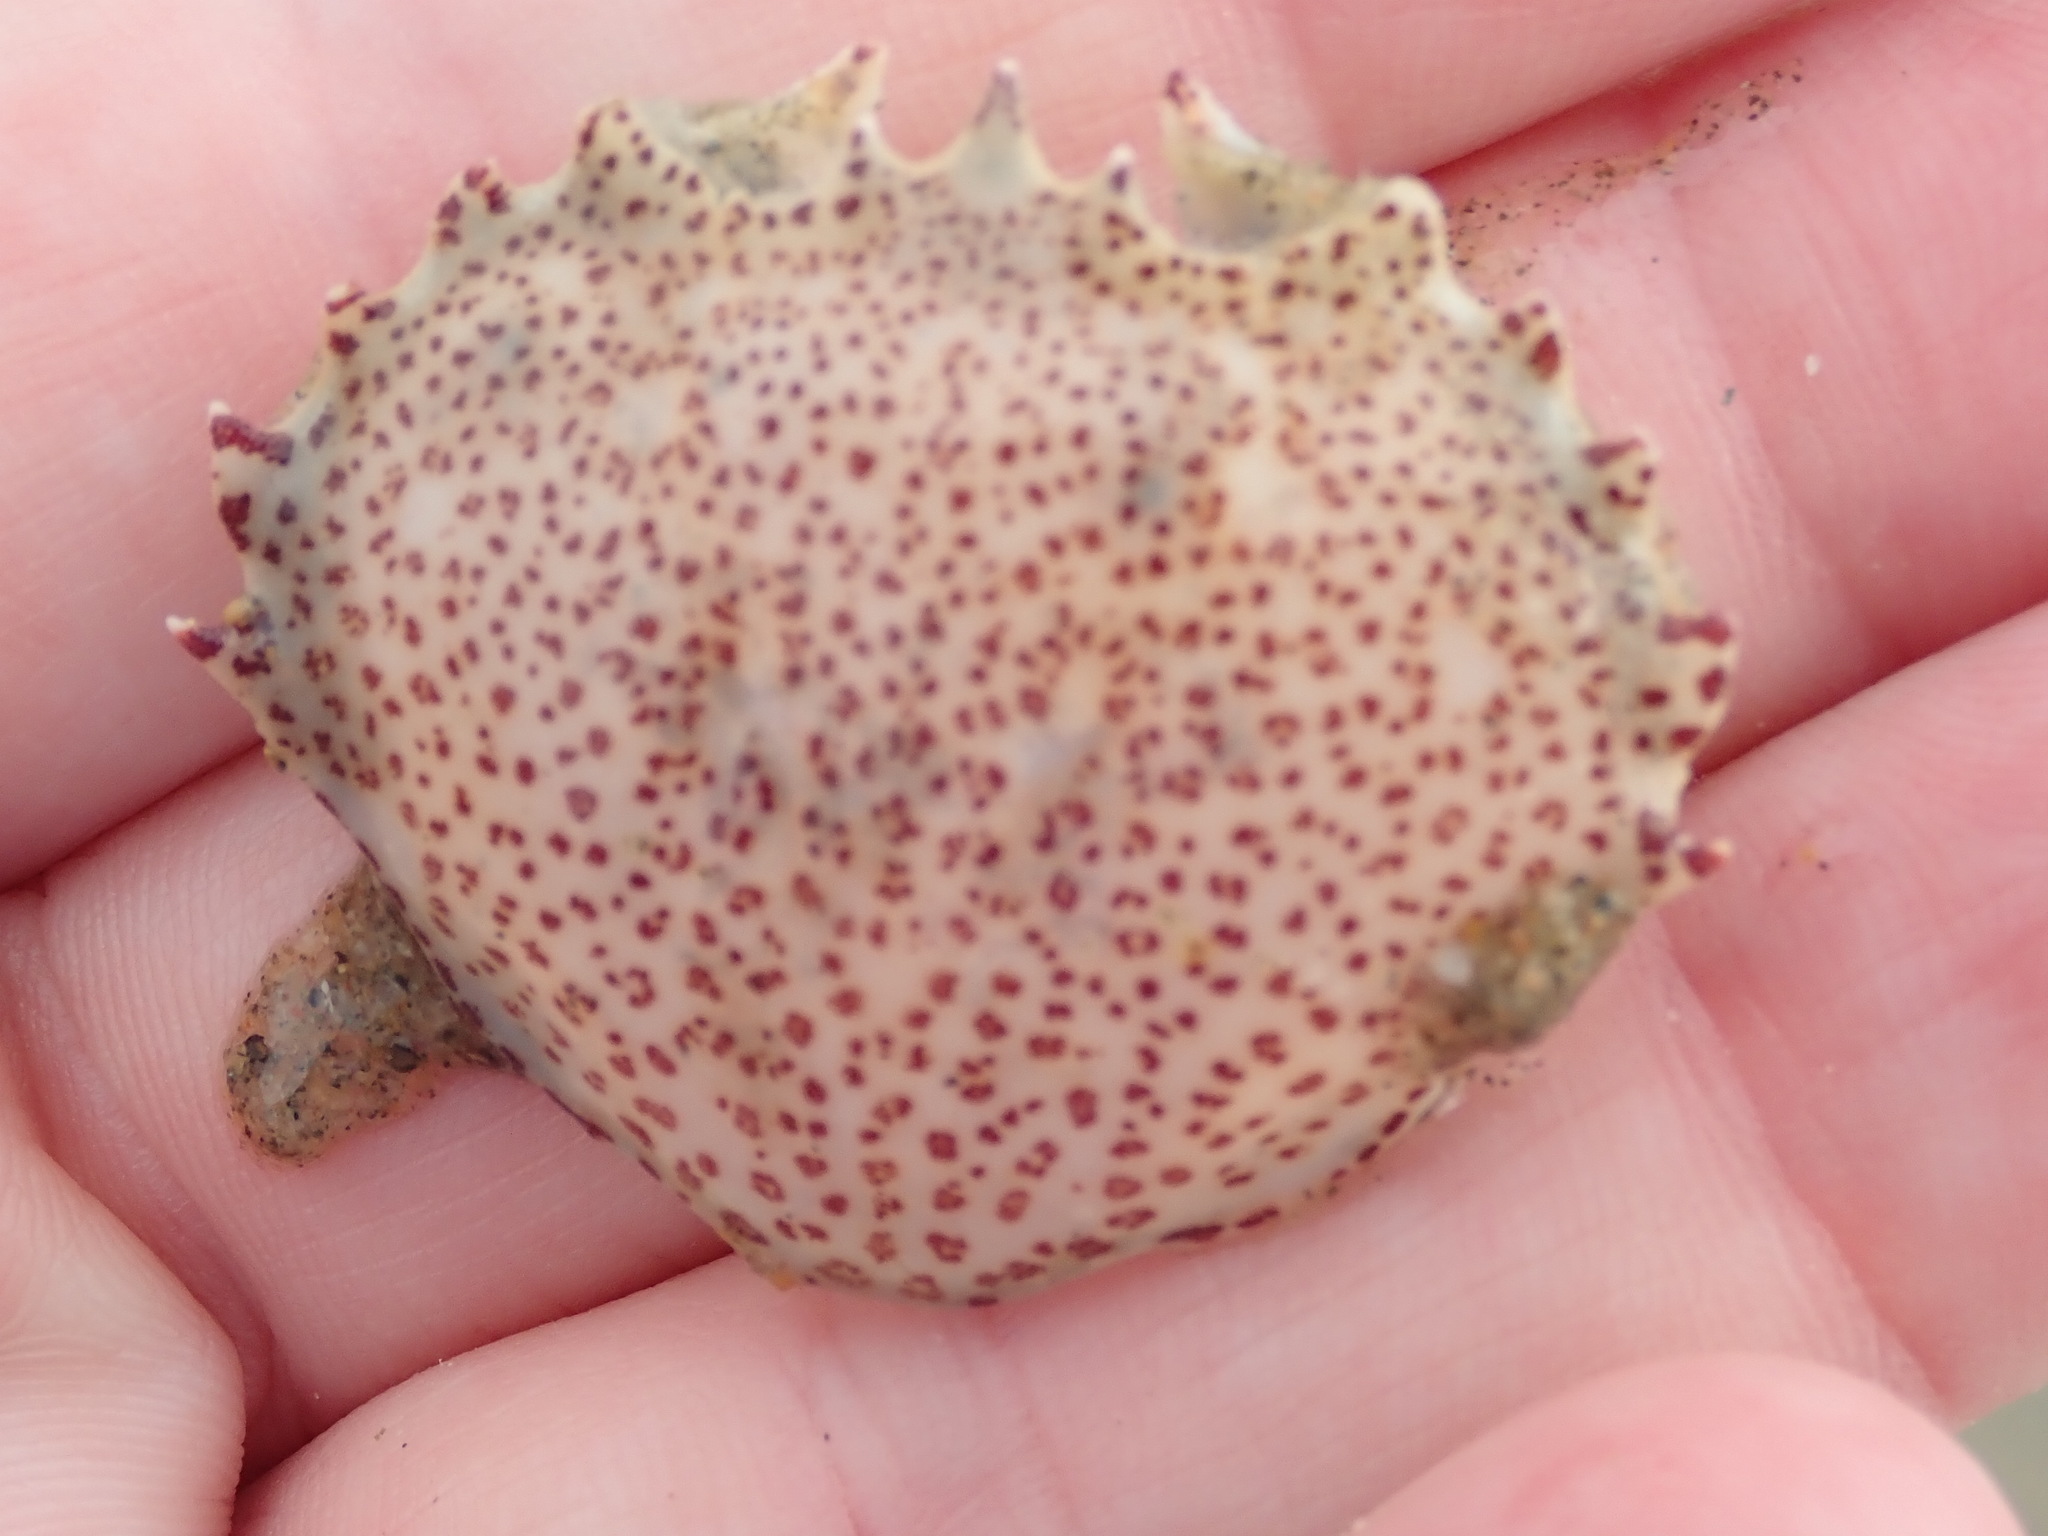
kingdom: Animalia
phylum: Arthropoda
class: Malacostraca
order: Decapoda
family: Ovalipidae
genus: Ovalipes
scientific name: Ovalipes ocellatus
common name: Lady crab
